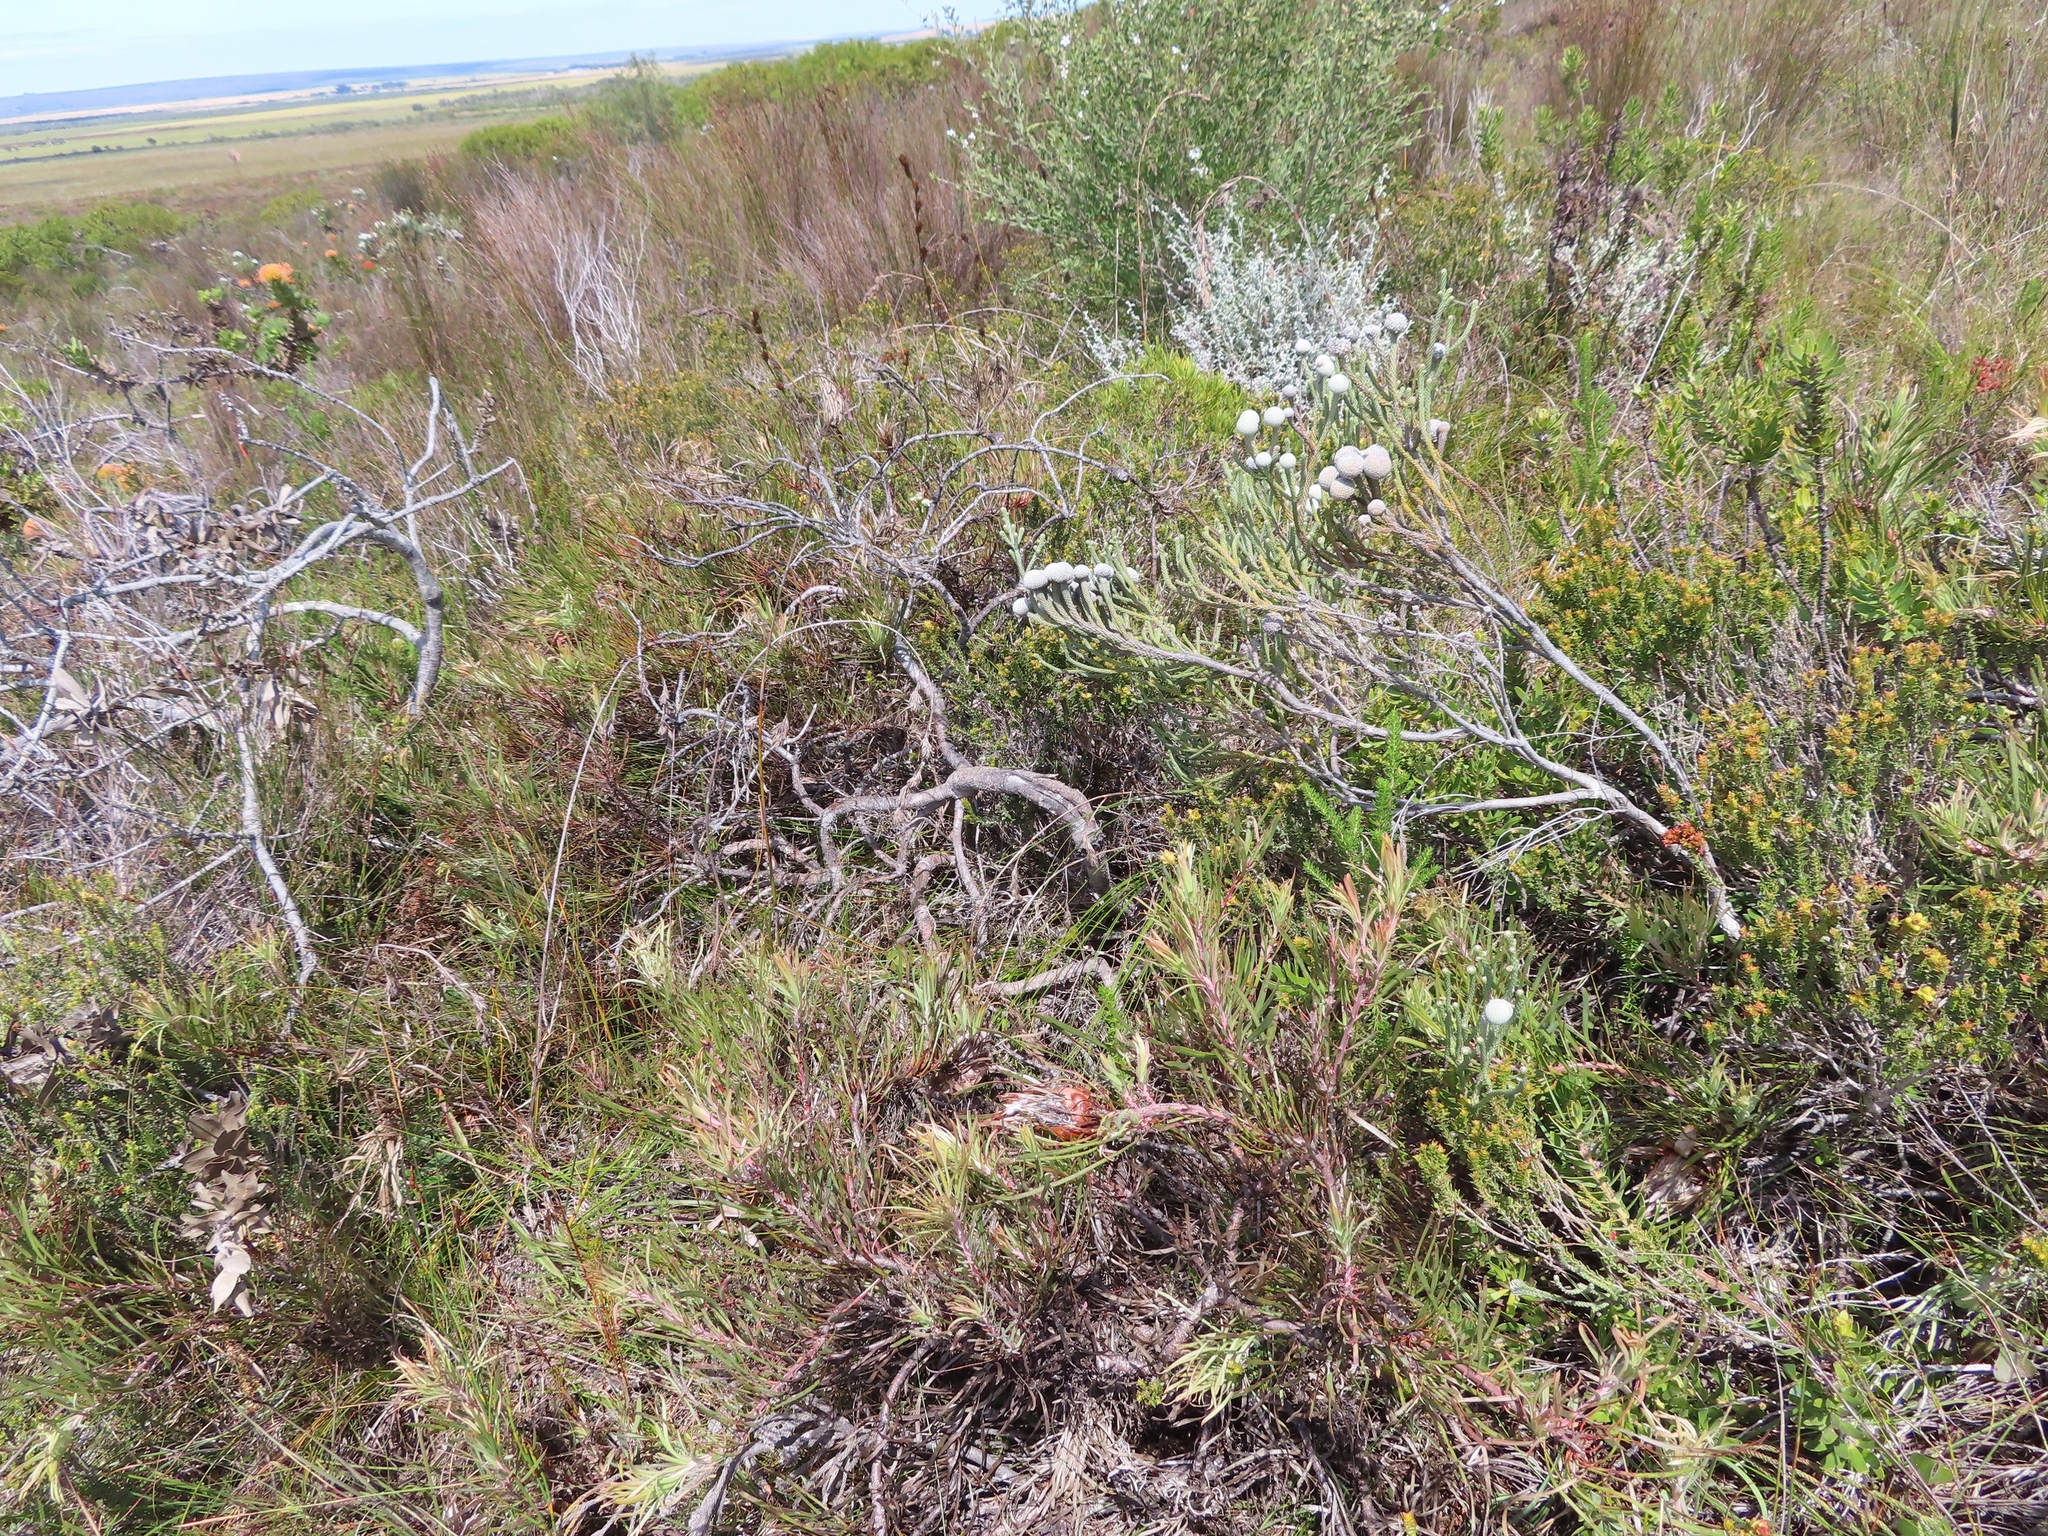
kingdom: Plantae
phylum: Tracheophyta
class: Magnoliopsida
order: Proteales
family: Proteaceae
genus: Protea
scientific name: Protea pudens
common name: Bashful sugarbush
